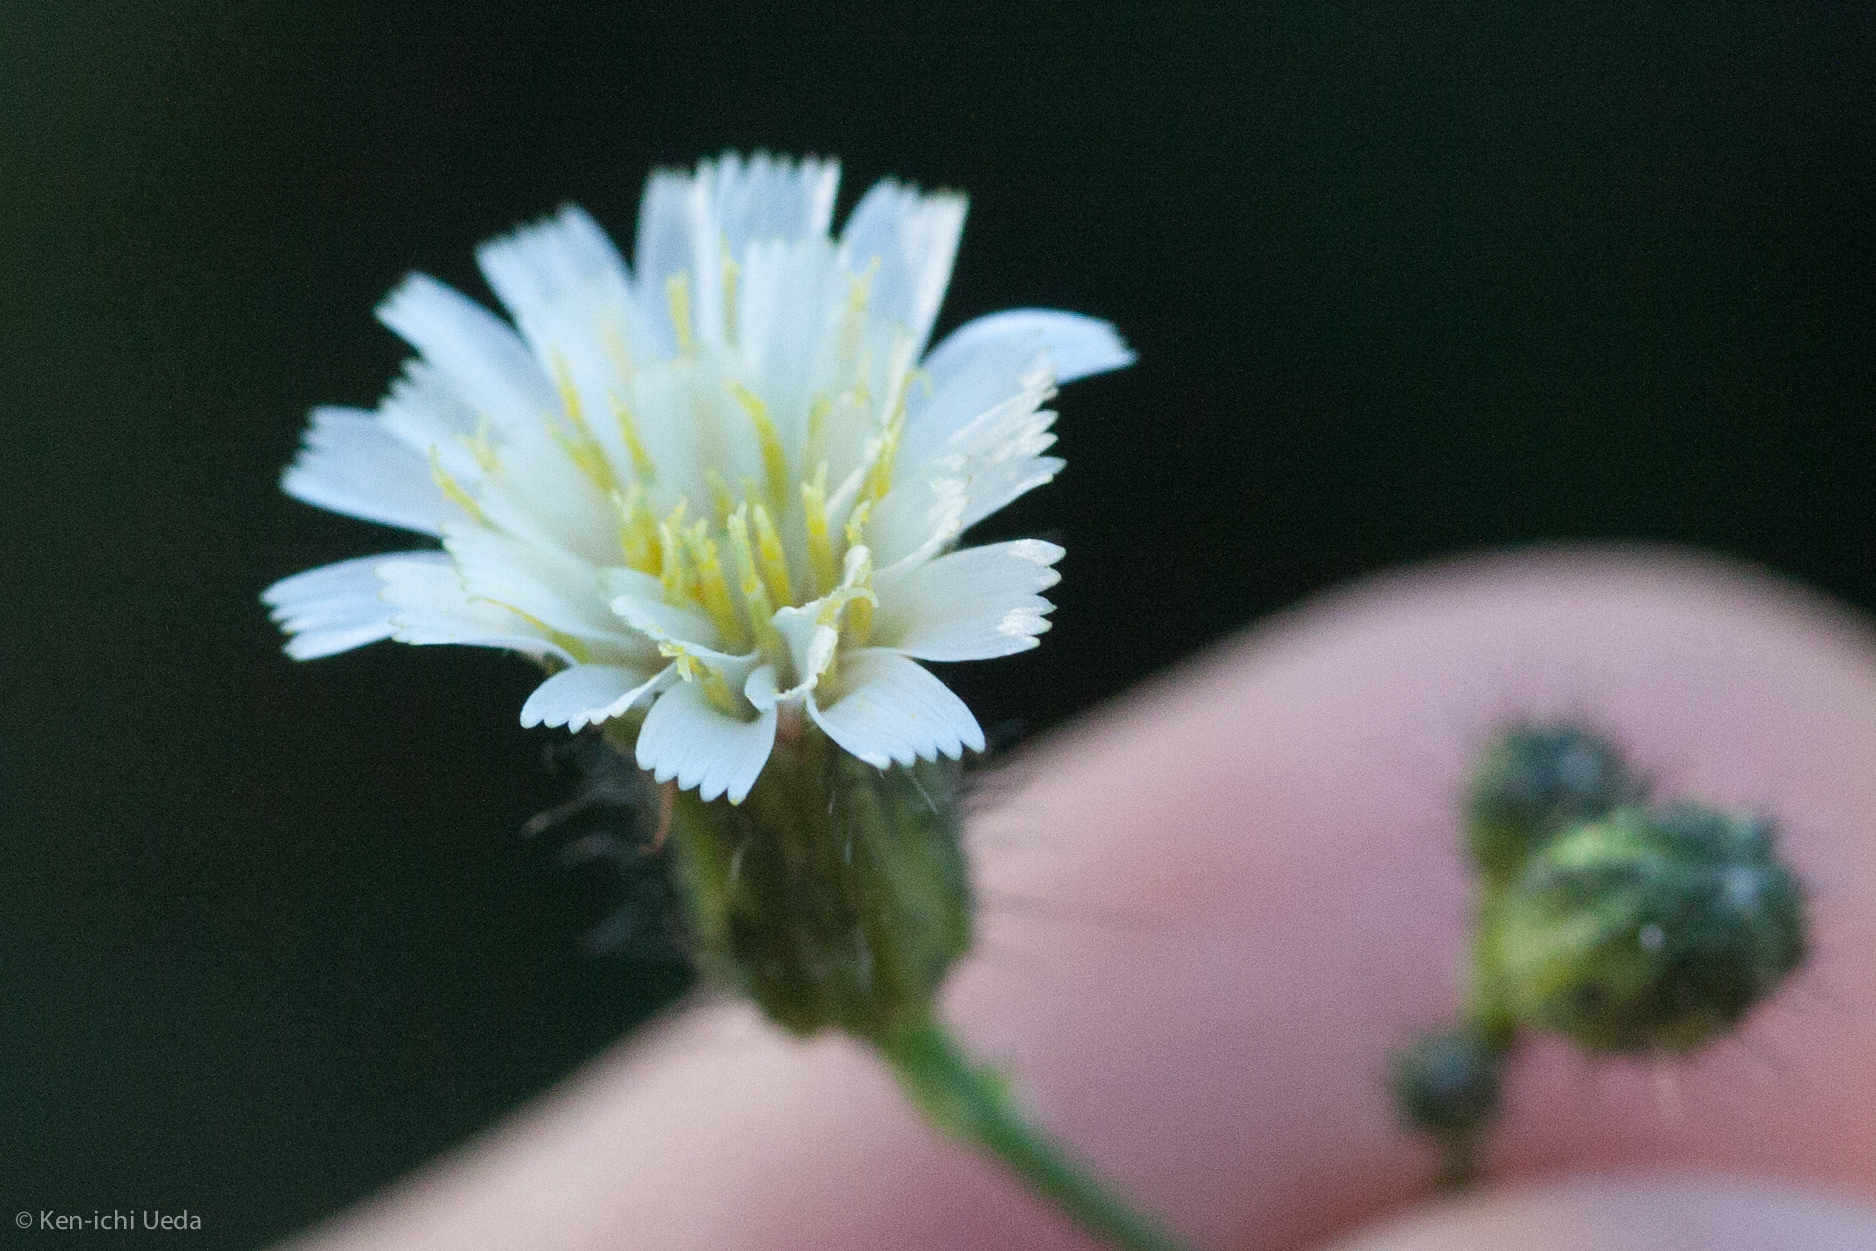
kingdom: Plantae
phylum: Tracheophyta
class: Magnoliopsida
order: Asterales
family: Asteraceae
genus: Hieracium
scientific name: Hieracium albiflorum
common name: White hawkweed
